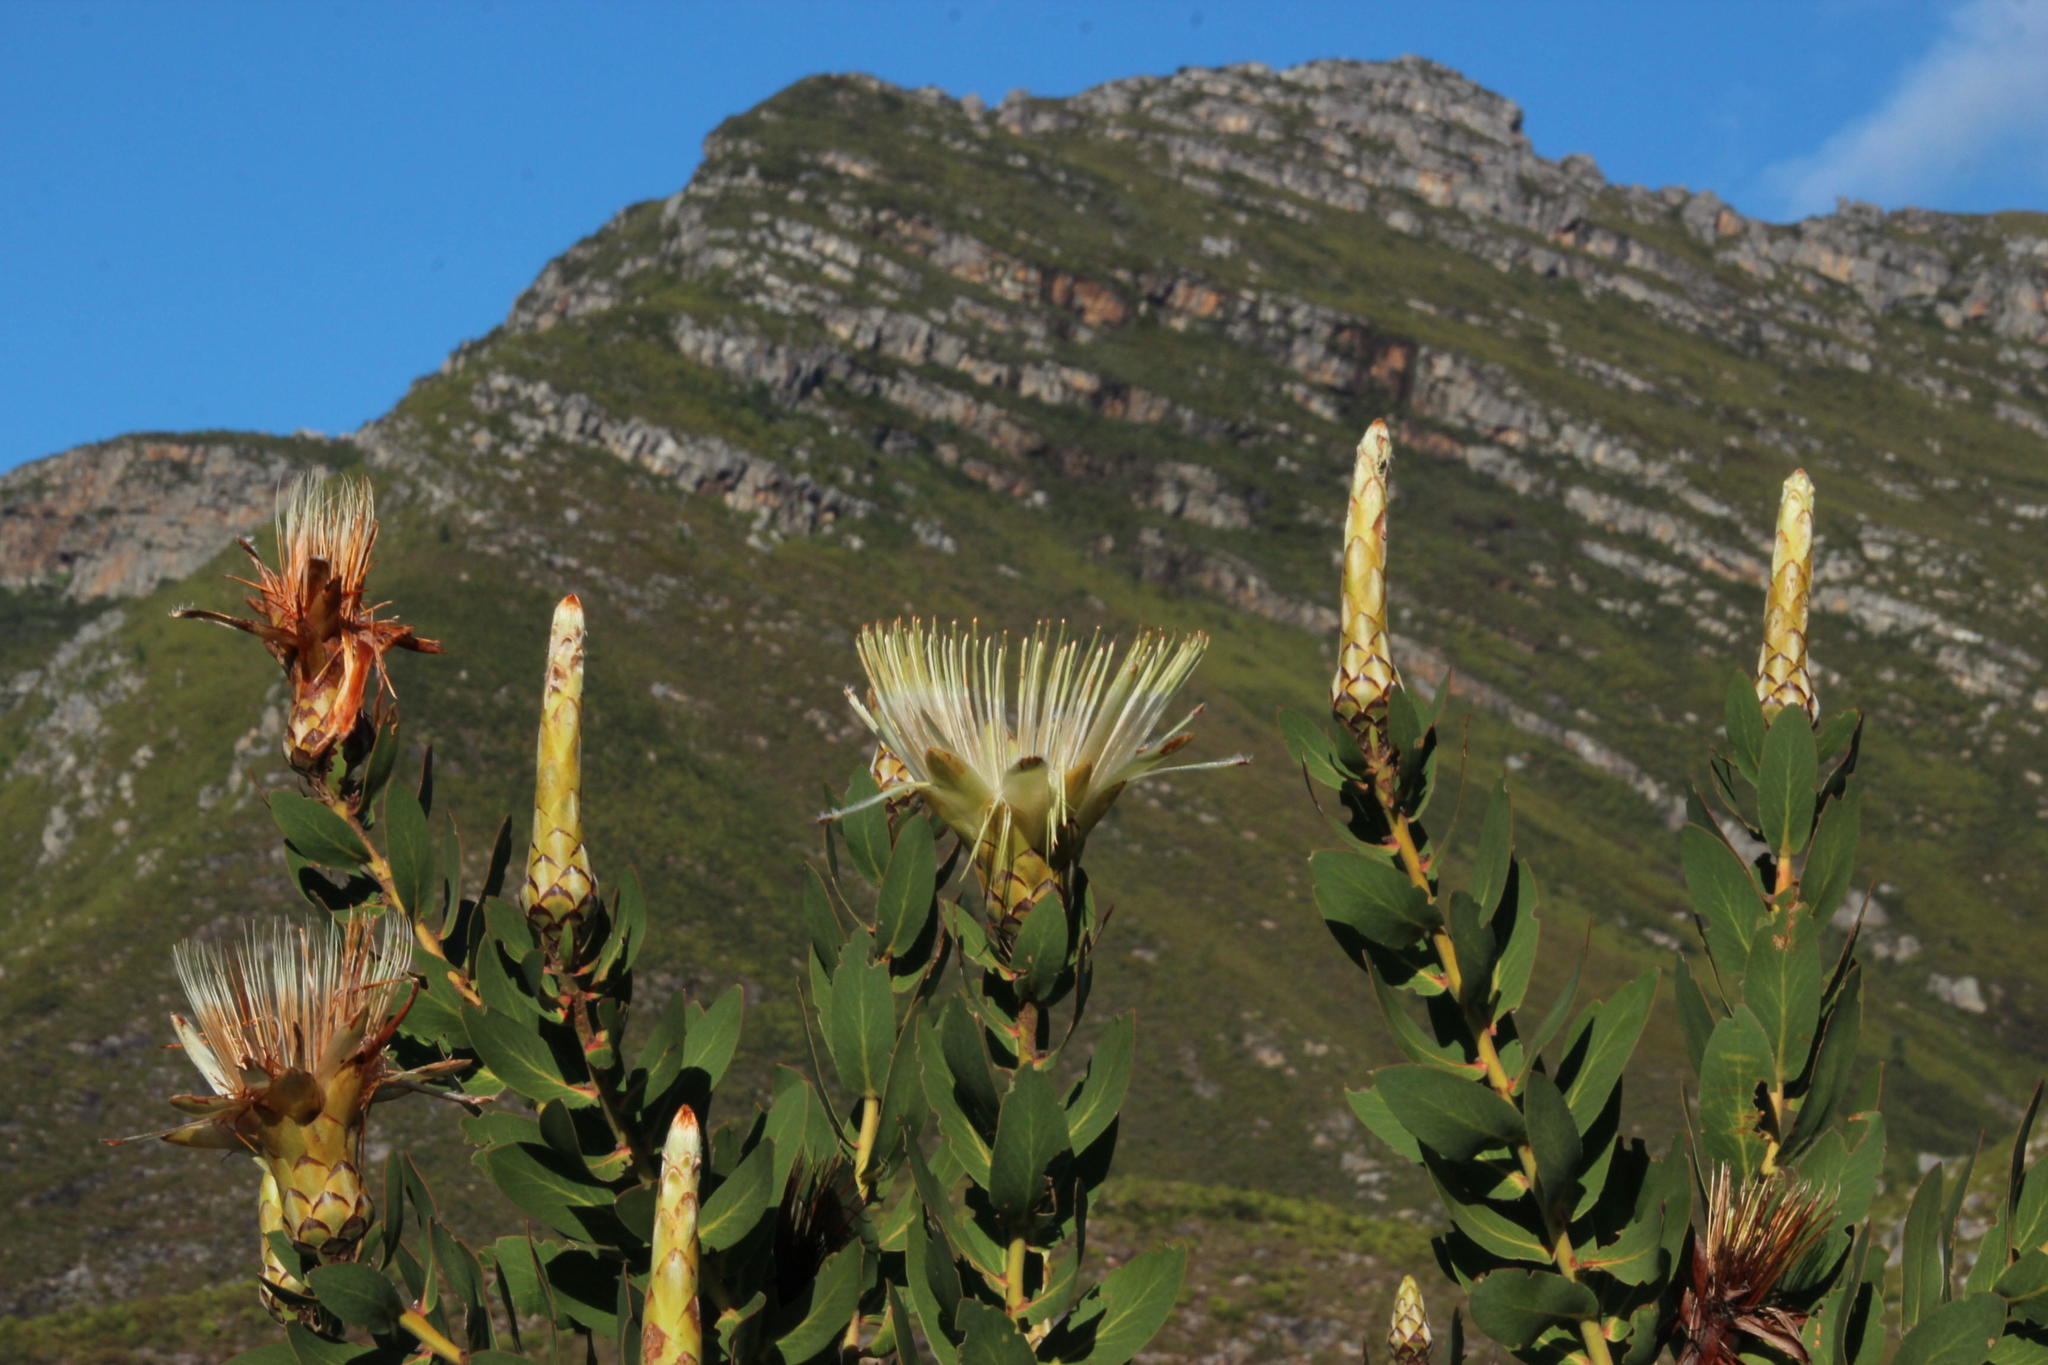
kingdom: Plantae
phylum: Tracheophyta
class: Magnoliopsida
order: Proteales
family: Proteaceae
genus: Protea
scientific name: Protea aurea
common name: Shuttlecock sugarbush
